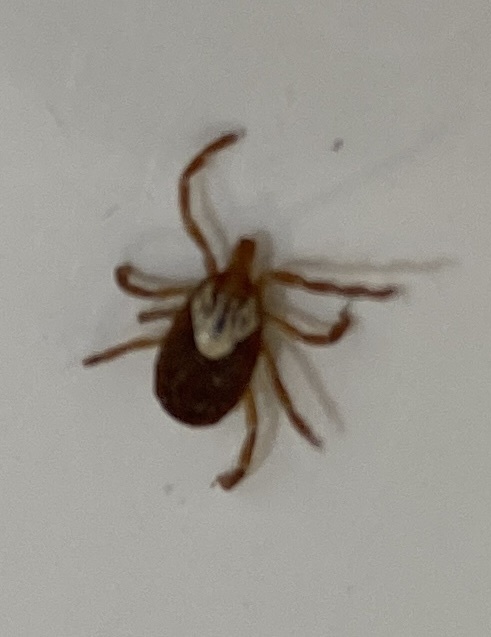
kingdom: Animalia
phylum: Arthropoda
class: Arachnida
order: Ixodida
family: Ixodidae
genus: Amblyomma
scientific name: Amblyomma maculatum
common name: Gulf coast tick
